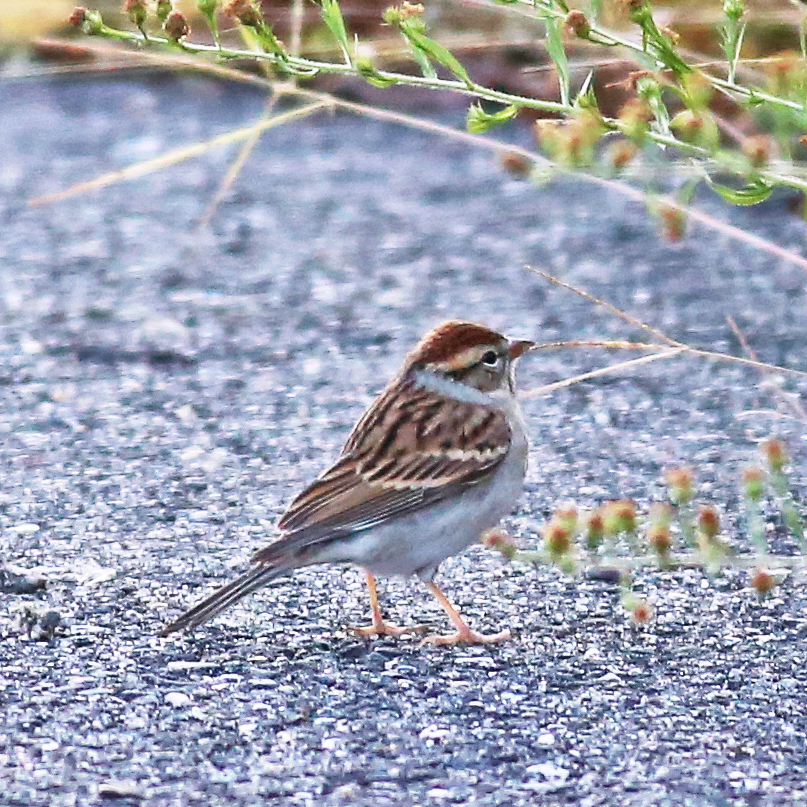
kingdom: Animalia
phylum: Chordata
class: Aves
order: Passeriformes
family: Passerellidae
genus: Spizella
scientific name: Spizella passerina
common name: Chipping sparrow
